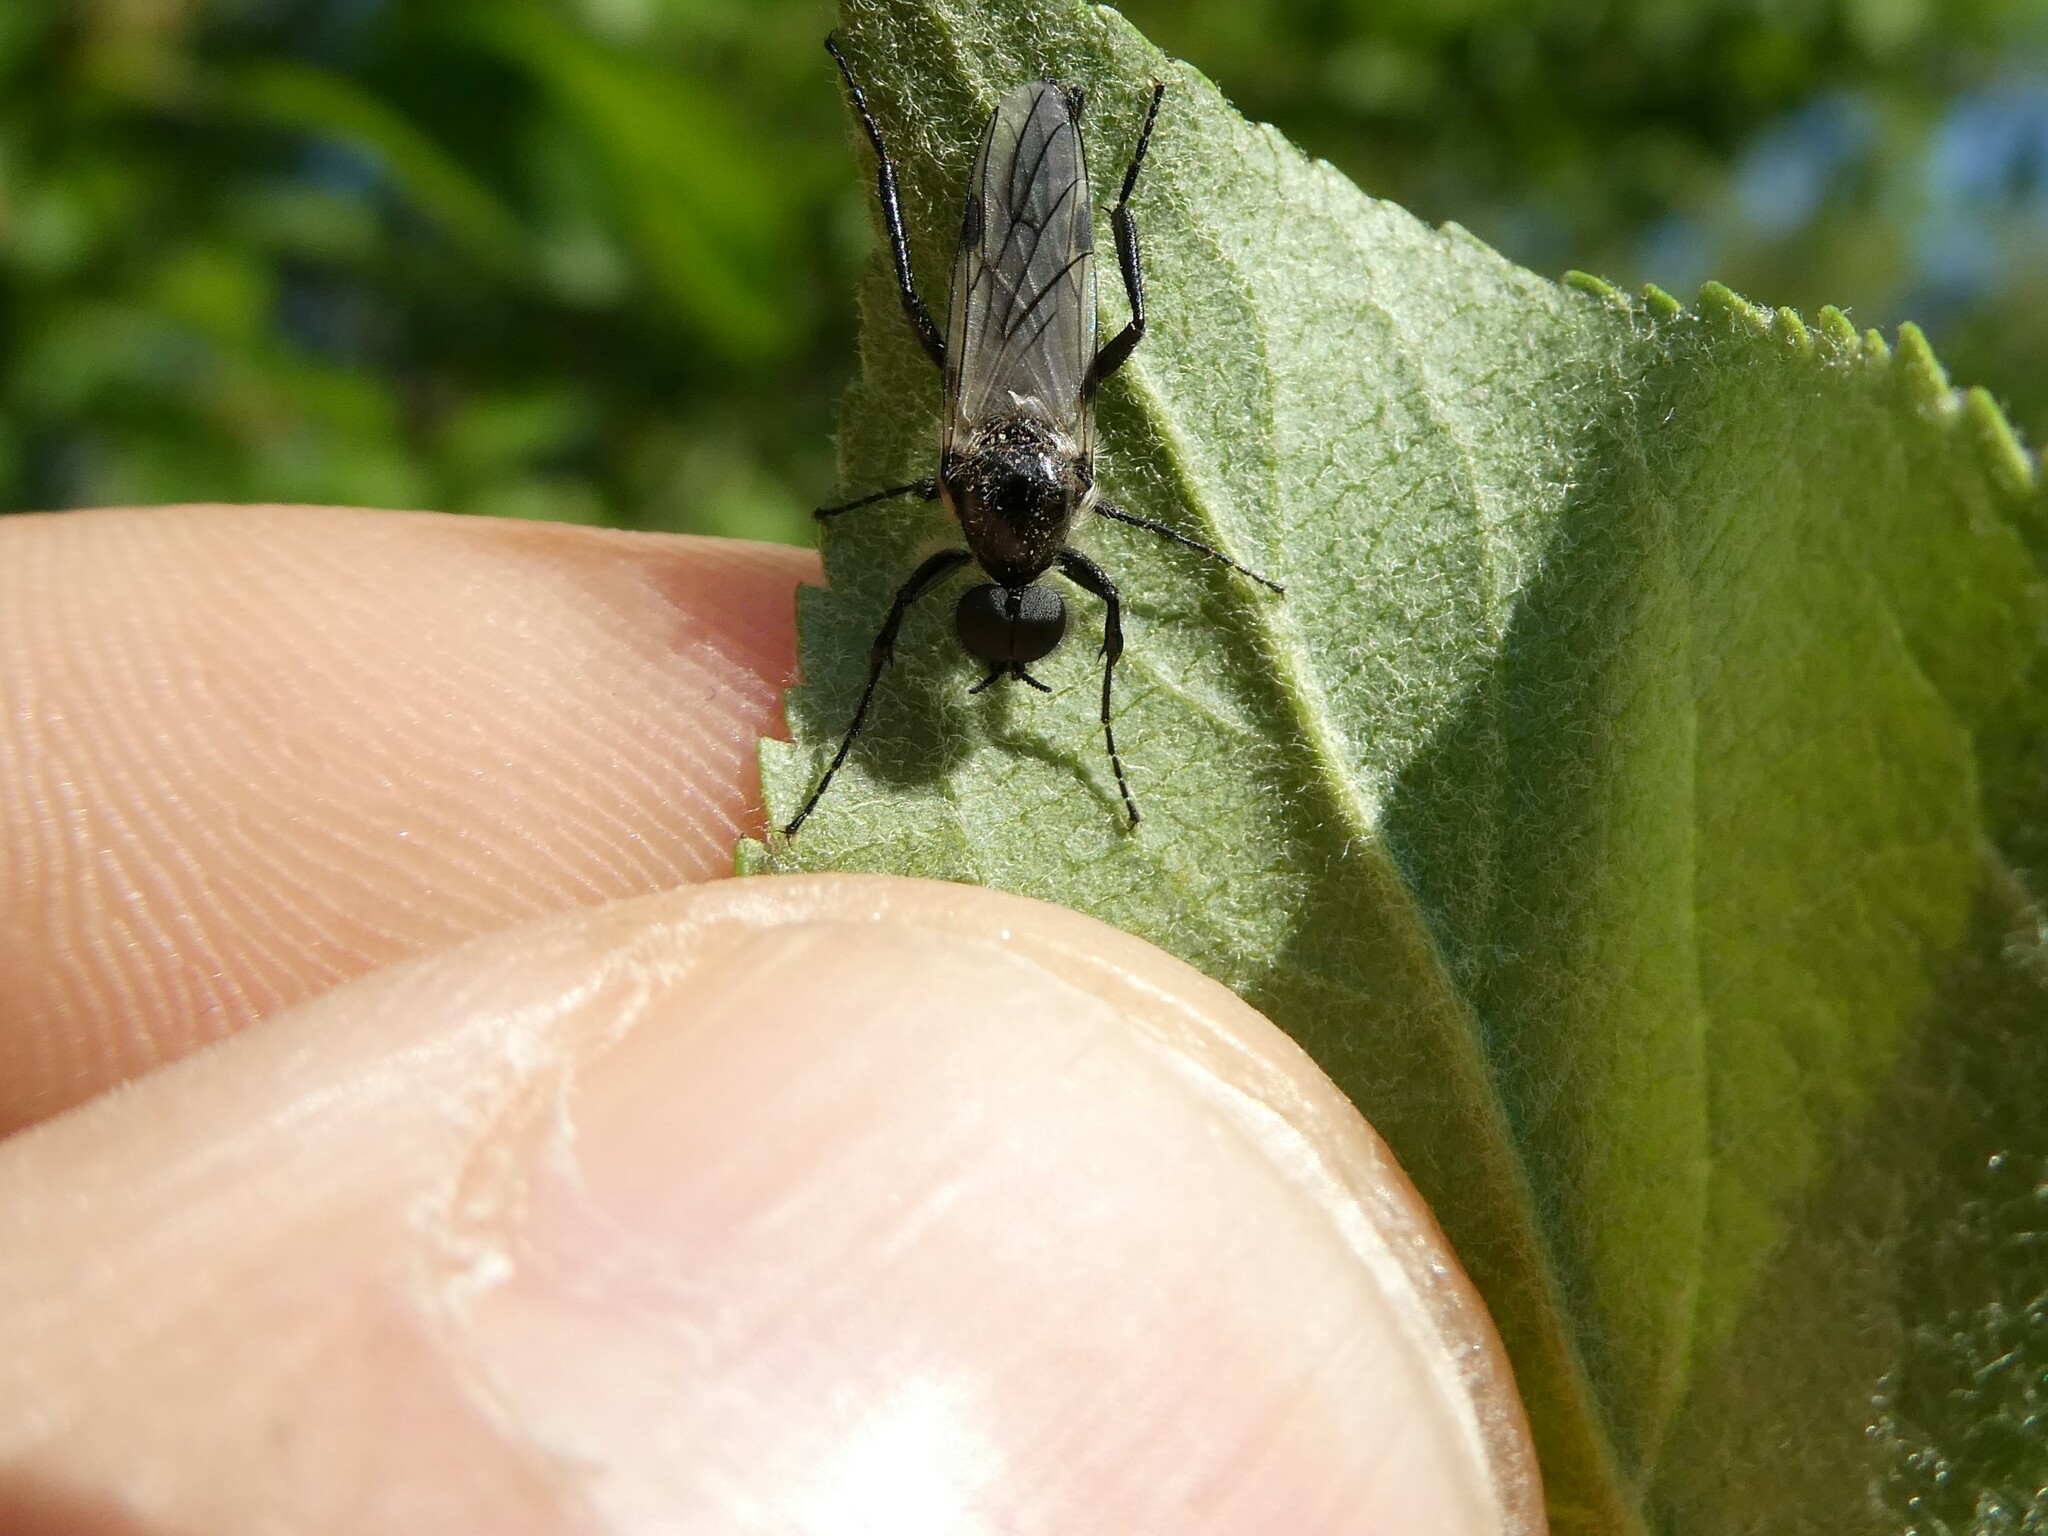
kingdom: Animalia
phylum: Arthropoda
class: Insecta
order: Diptera
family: Bibionidae
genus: Bibio
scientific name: Bibio albipennis
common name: White-winged march fly
